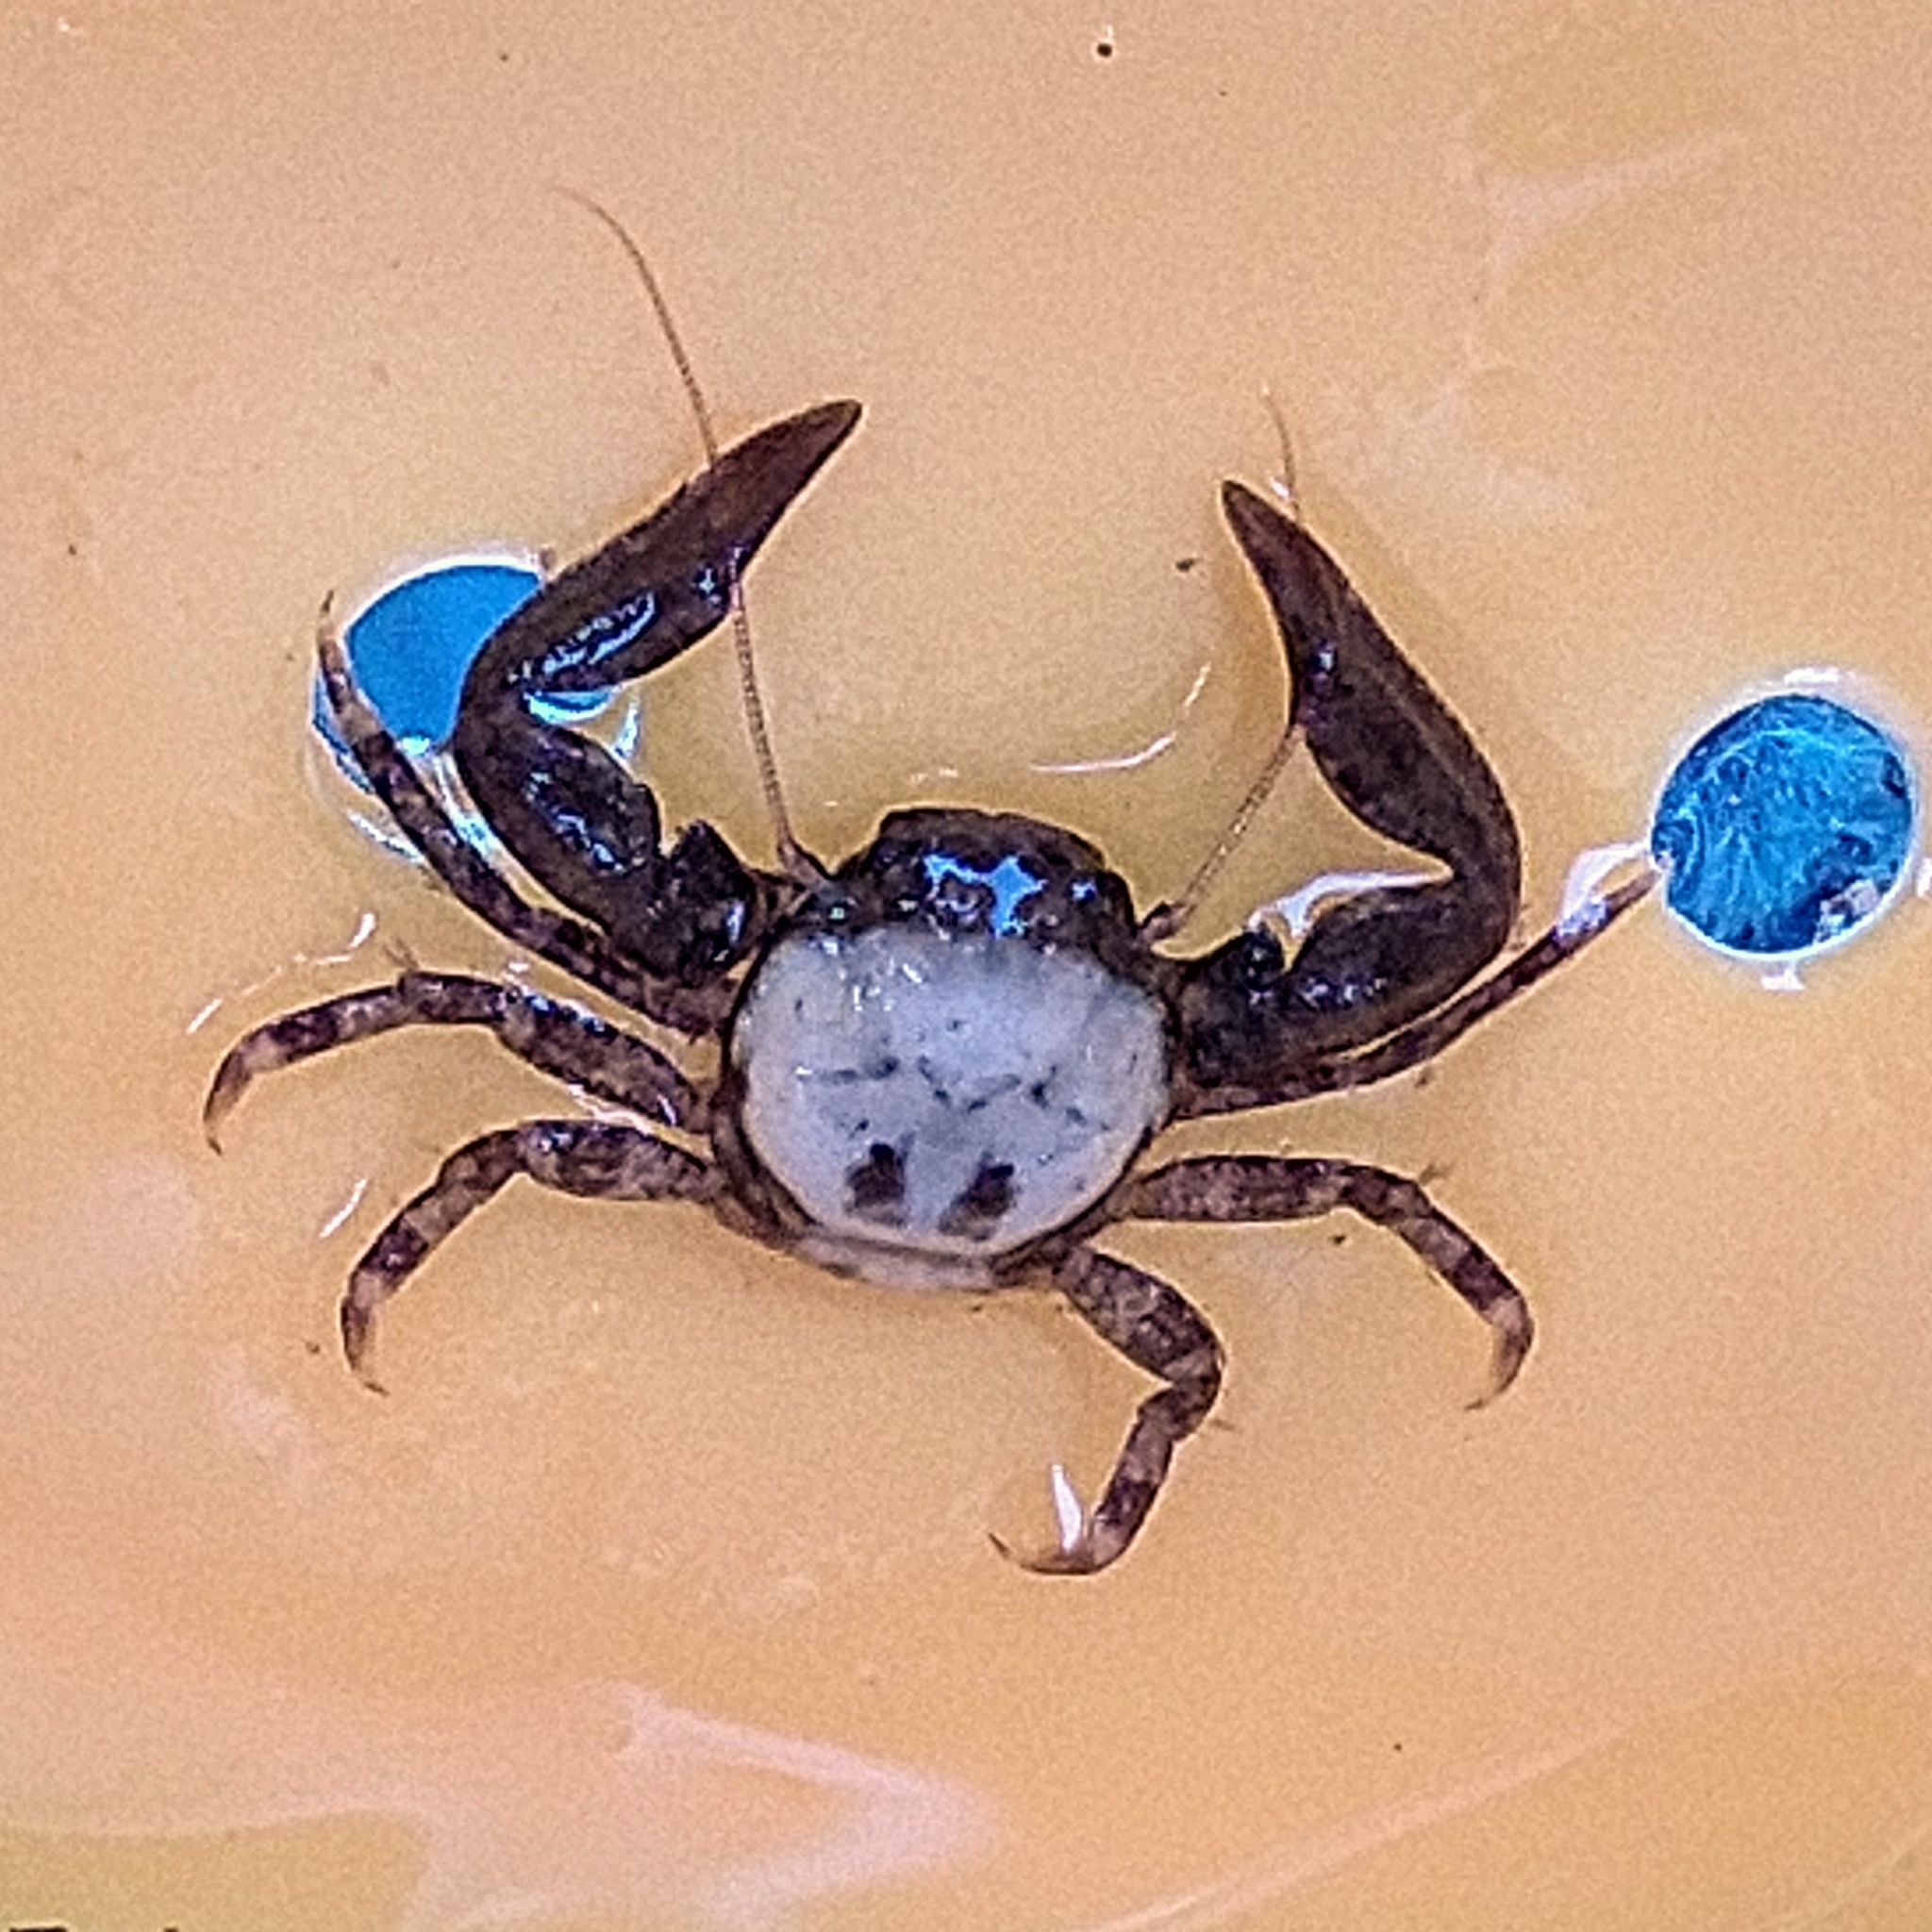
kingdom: Animalia
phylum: Arthropoda
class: Malacostraca
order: Decapoda
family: Porcellanidae
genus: Pisidia
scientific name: Pisidia longicornis
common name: Long clawed porcelain crab
